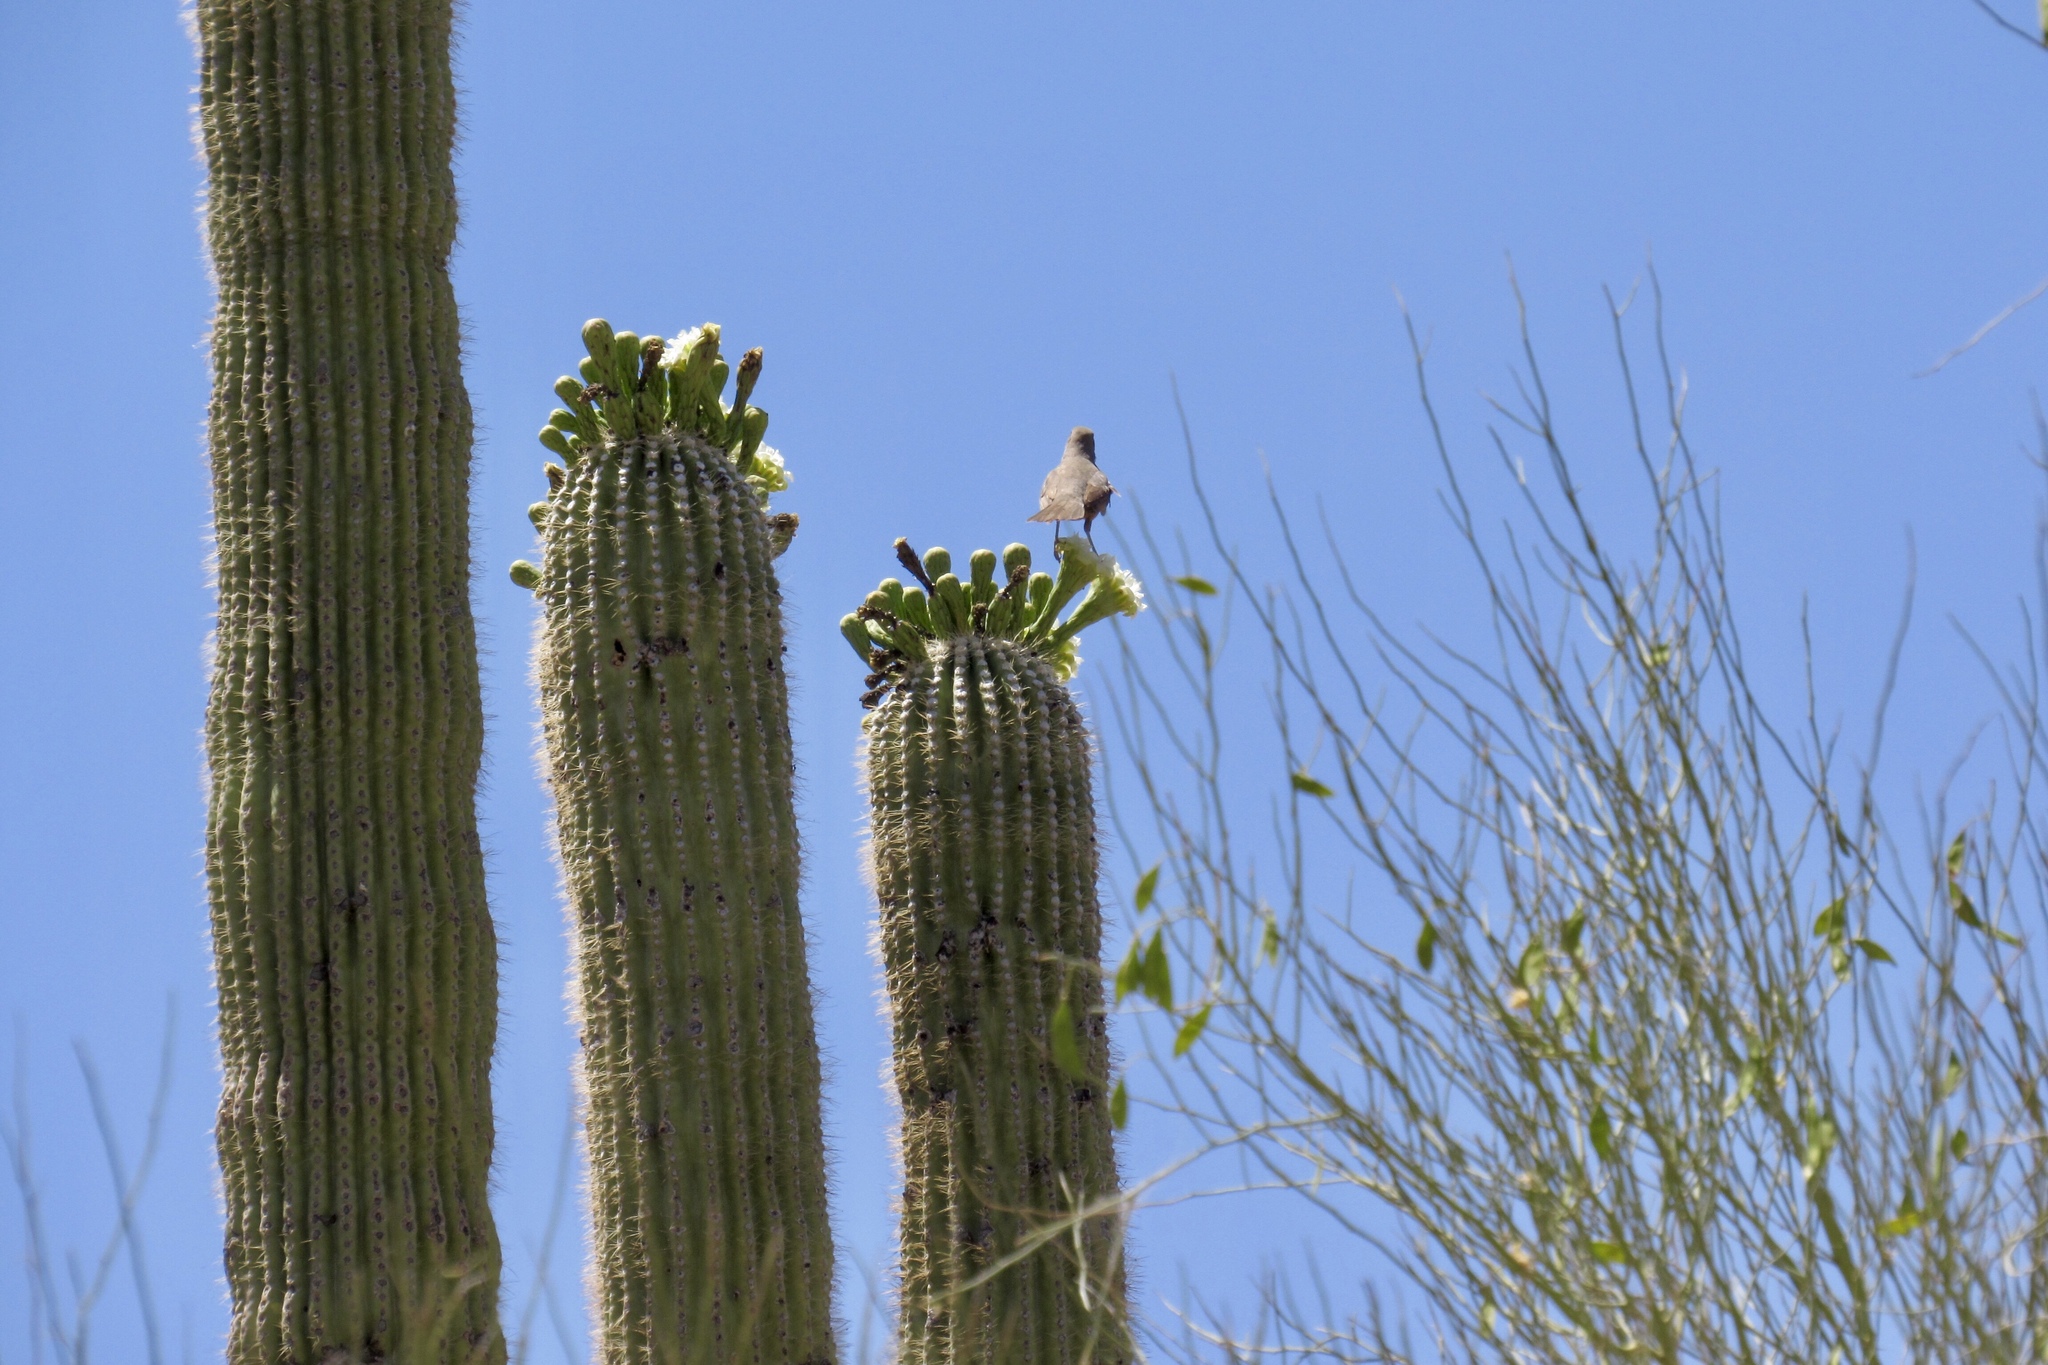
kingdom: Animalia
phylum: Chordata
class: Aves
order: Passeriformes
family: Mimidae
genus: Toxostoma
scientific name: Toxostoma curvirostre
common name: Curve-billed thrasher
